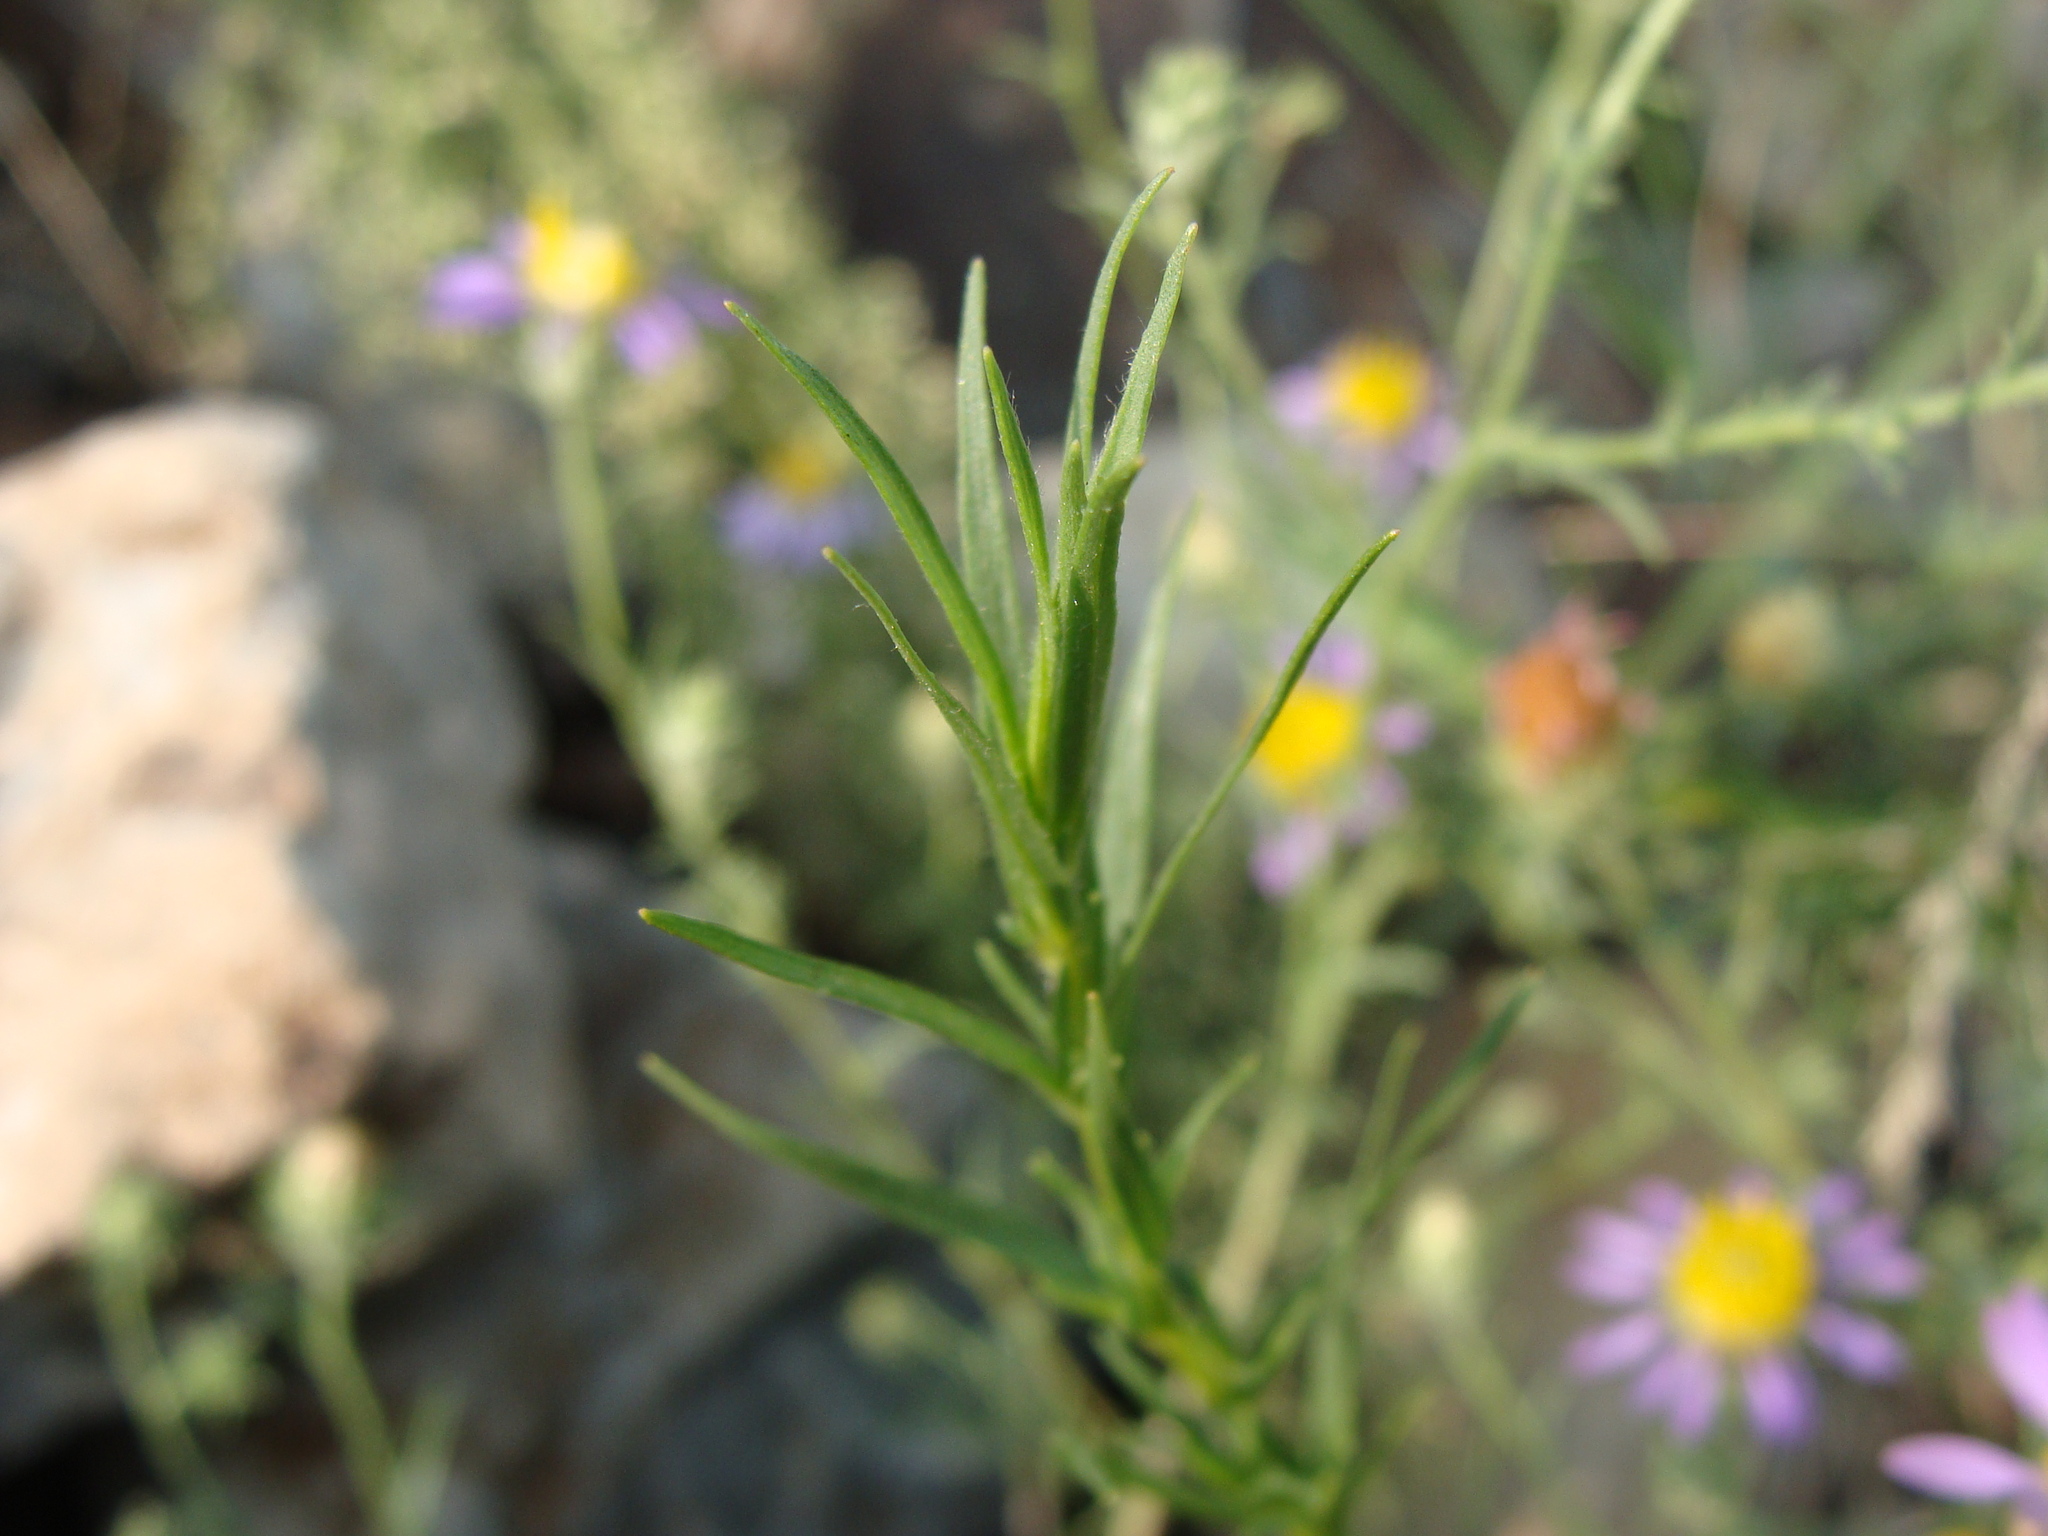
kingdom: Plantae
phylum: Tracheophyta
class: Magnoliopsida
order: Asterales
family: Asteraceae
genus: Machaeranthera
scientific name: Machaeranthera tagetina
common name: Mesa tansy-aster
